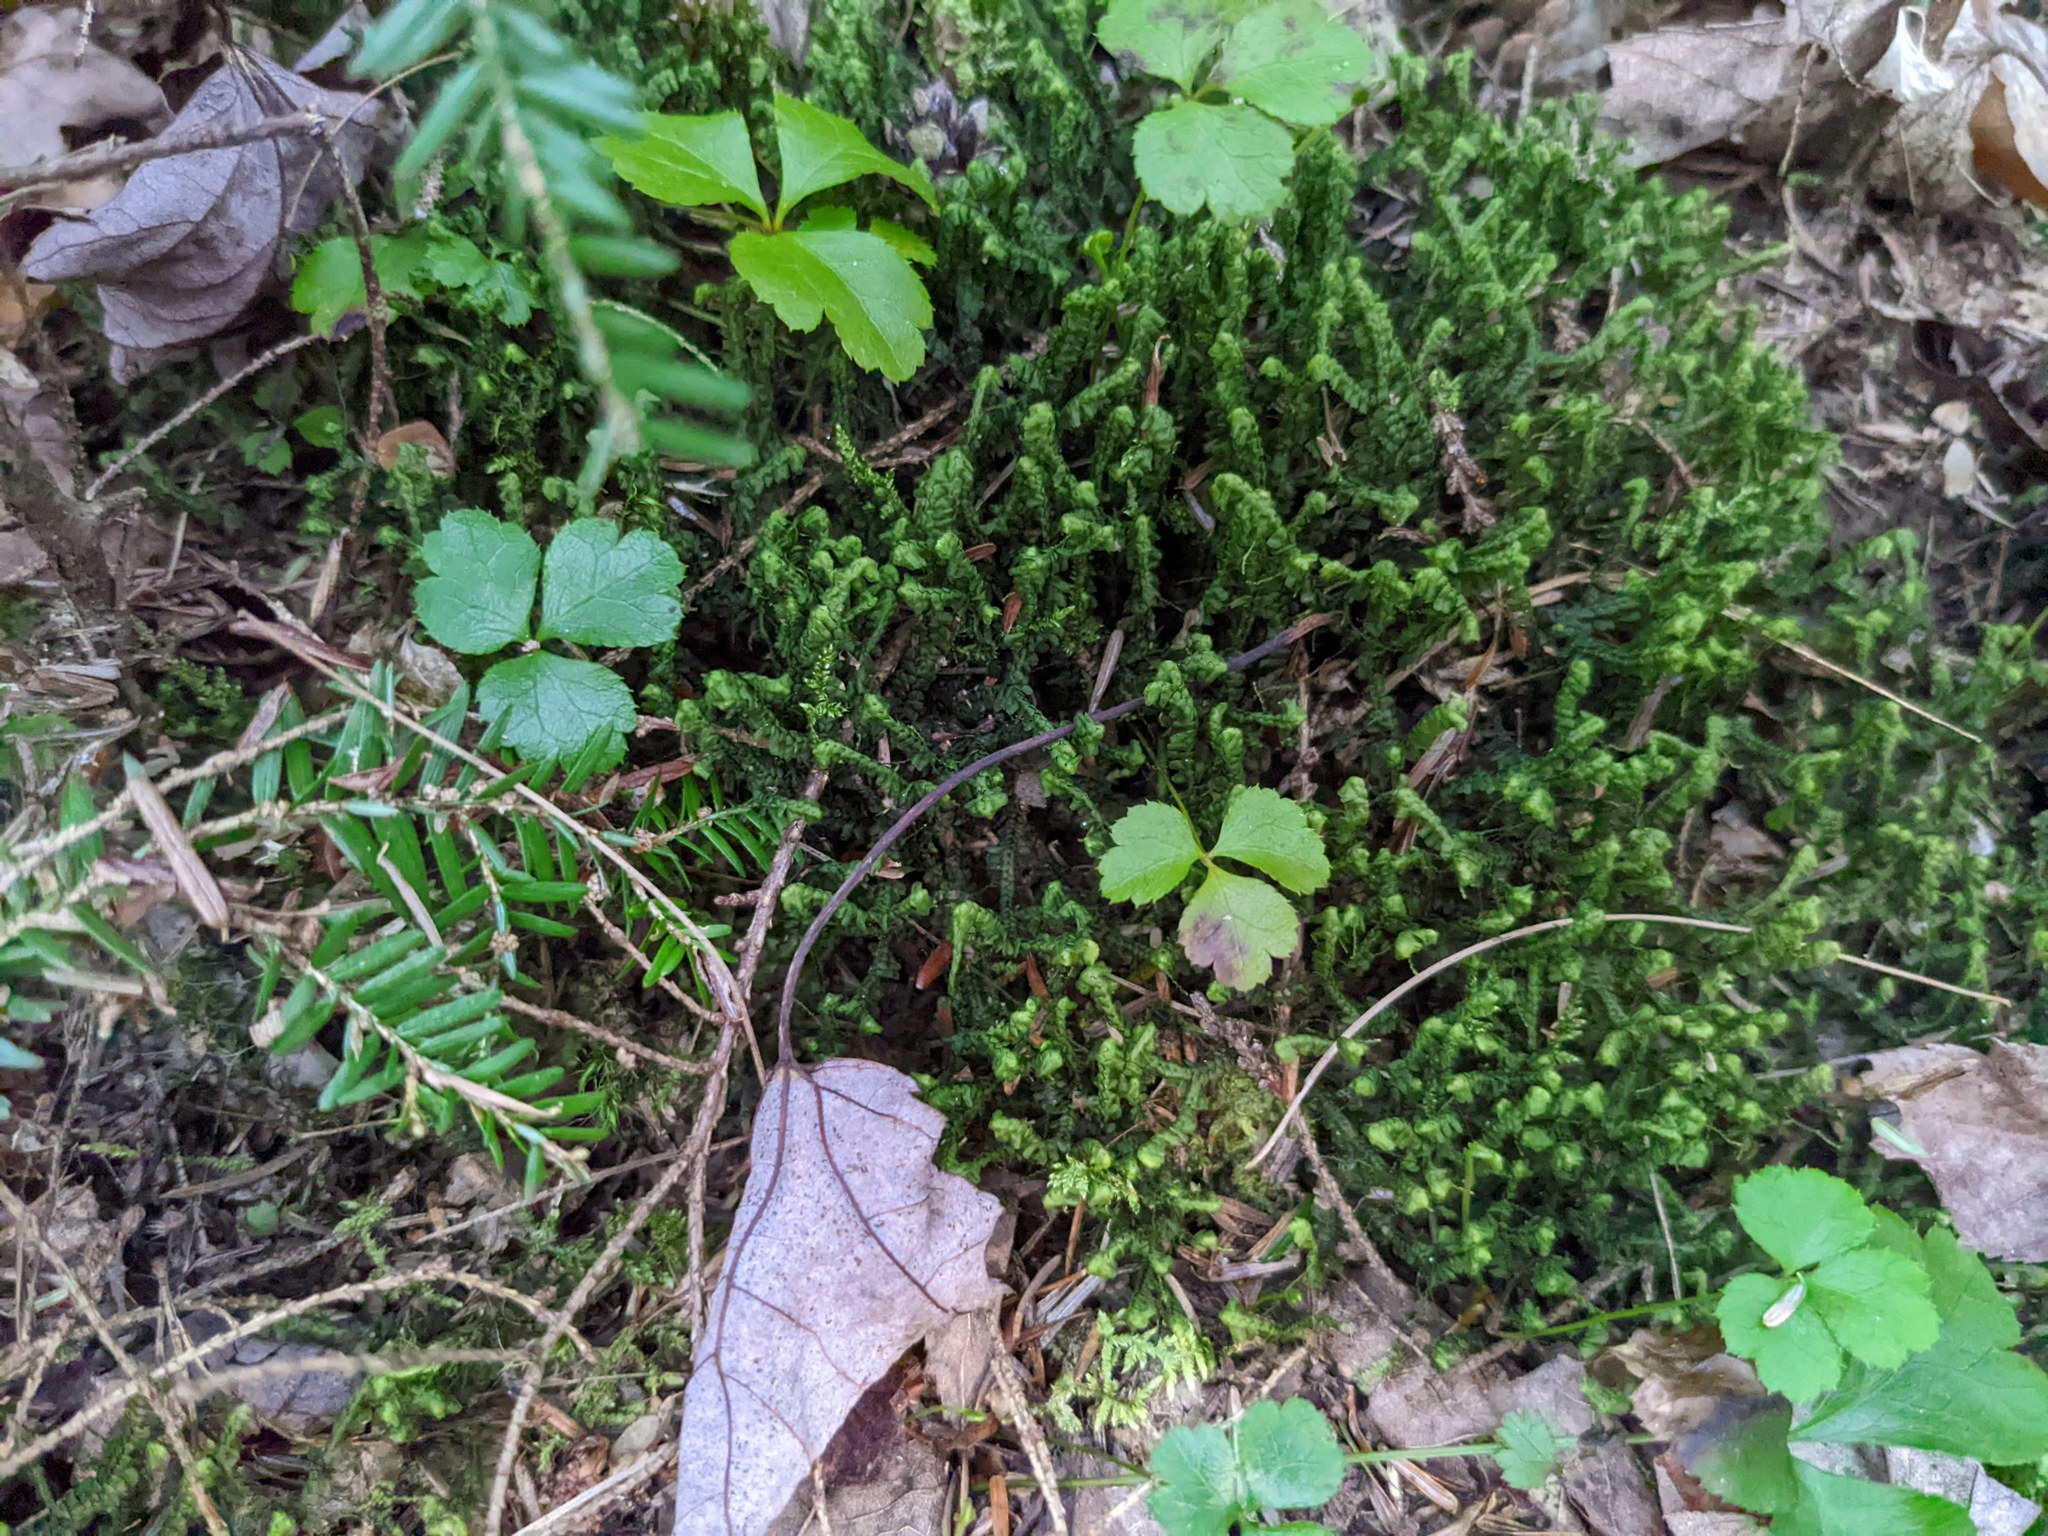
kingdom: Plantae
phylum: Tracheophyta
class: Magnoliopsida
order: Ranunculales
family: Ranunculaceae
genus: Coptis
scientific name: Coptis trifolia
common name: Canker-root
